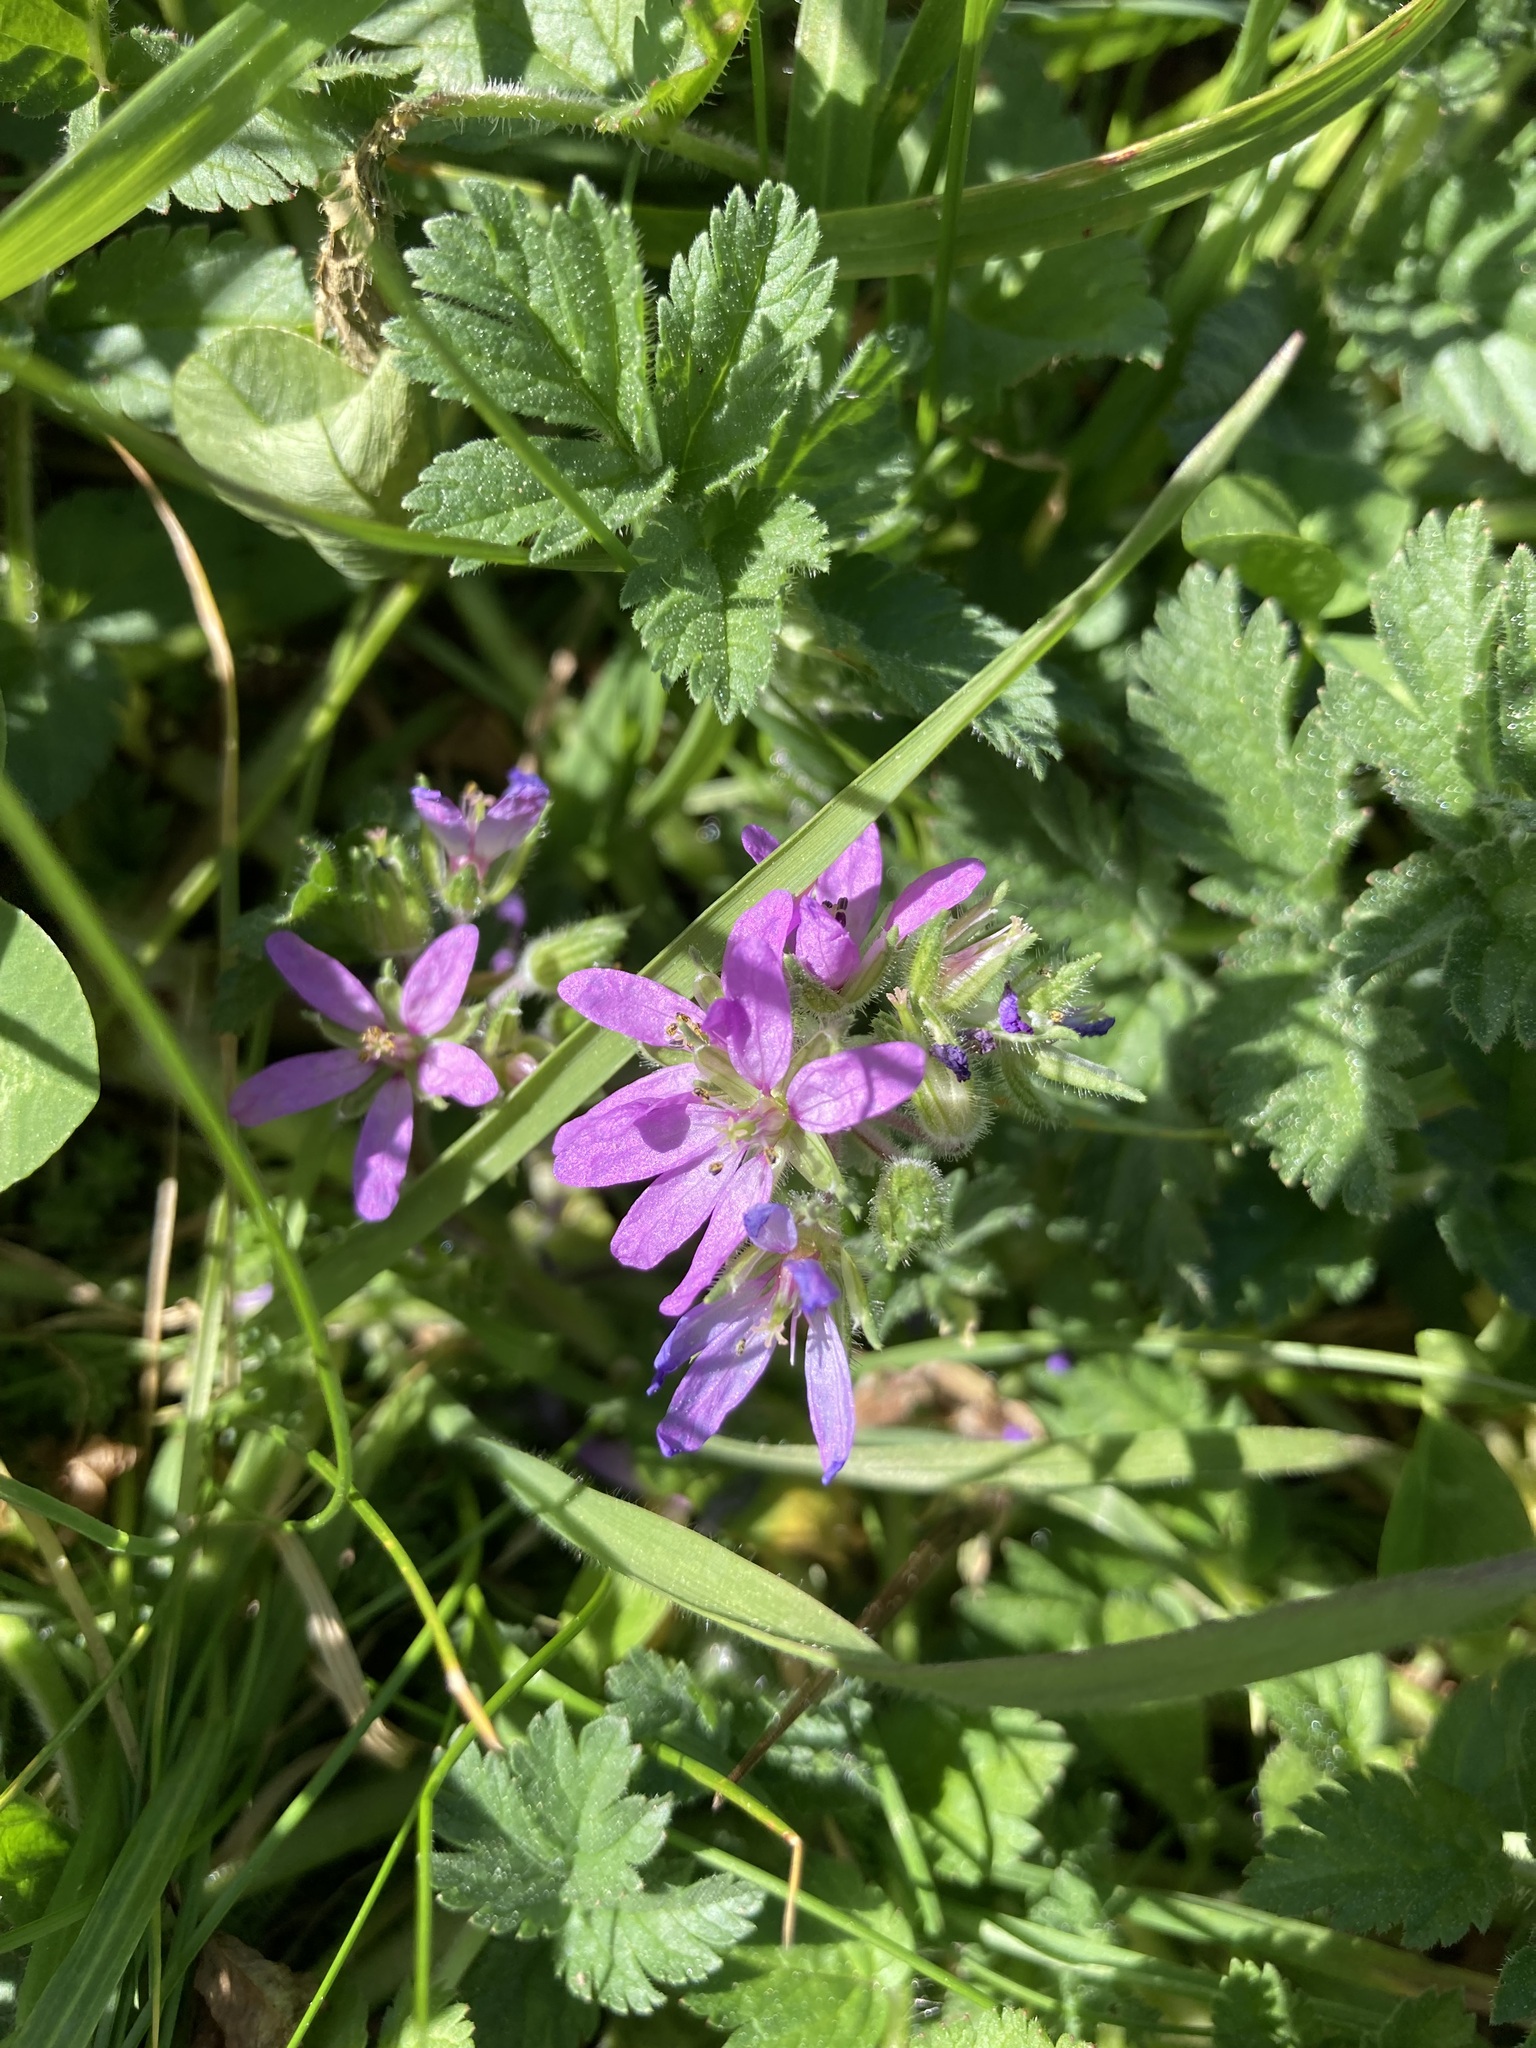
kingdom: Plantae
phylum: Tracheophyta
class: Magnoliopsida
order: Geraniales
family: Geraniaceae
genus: Erodium
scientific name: Erodium moschatum
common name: Musk stork's-bill
